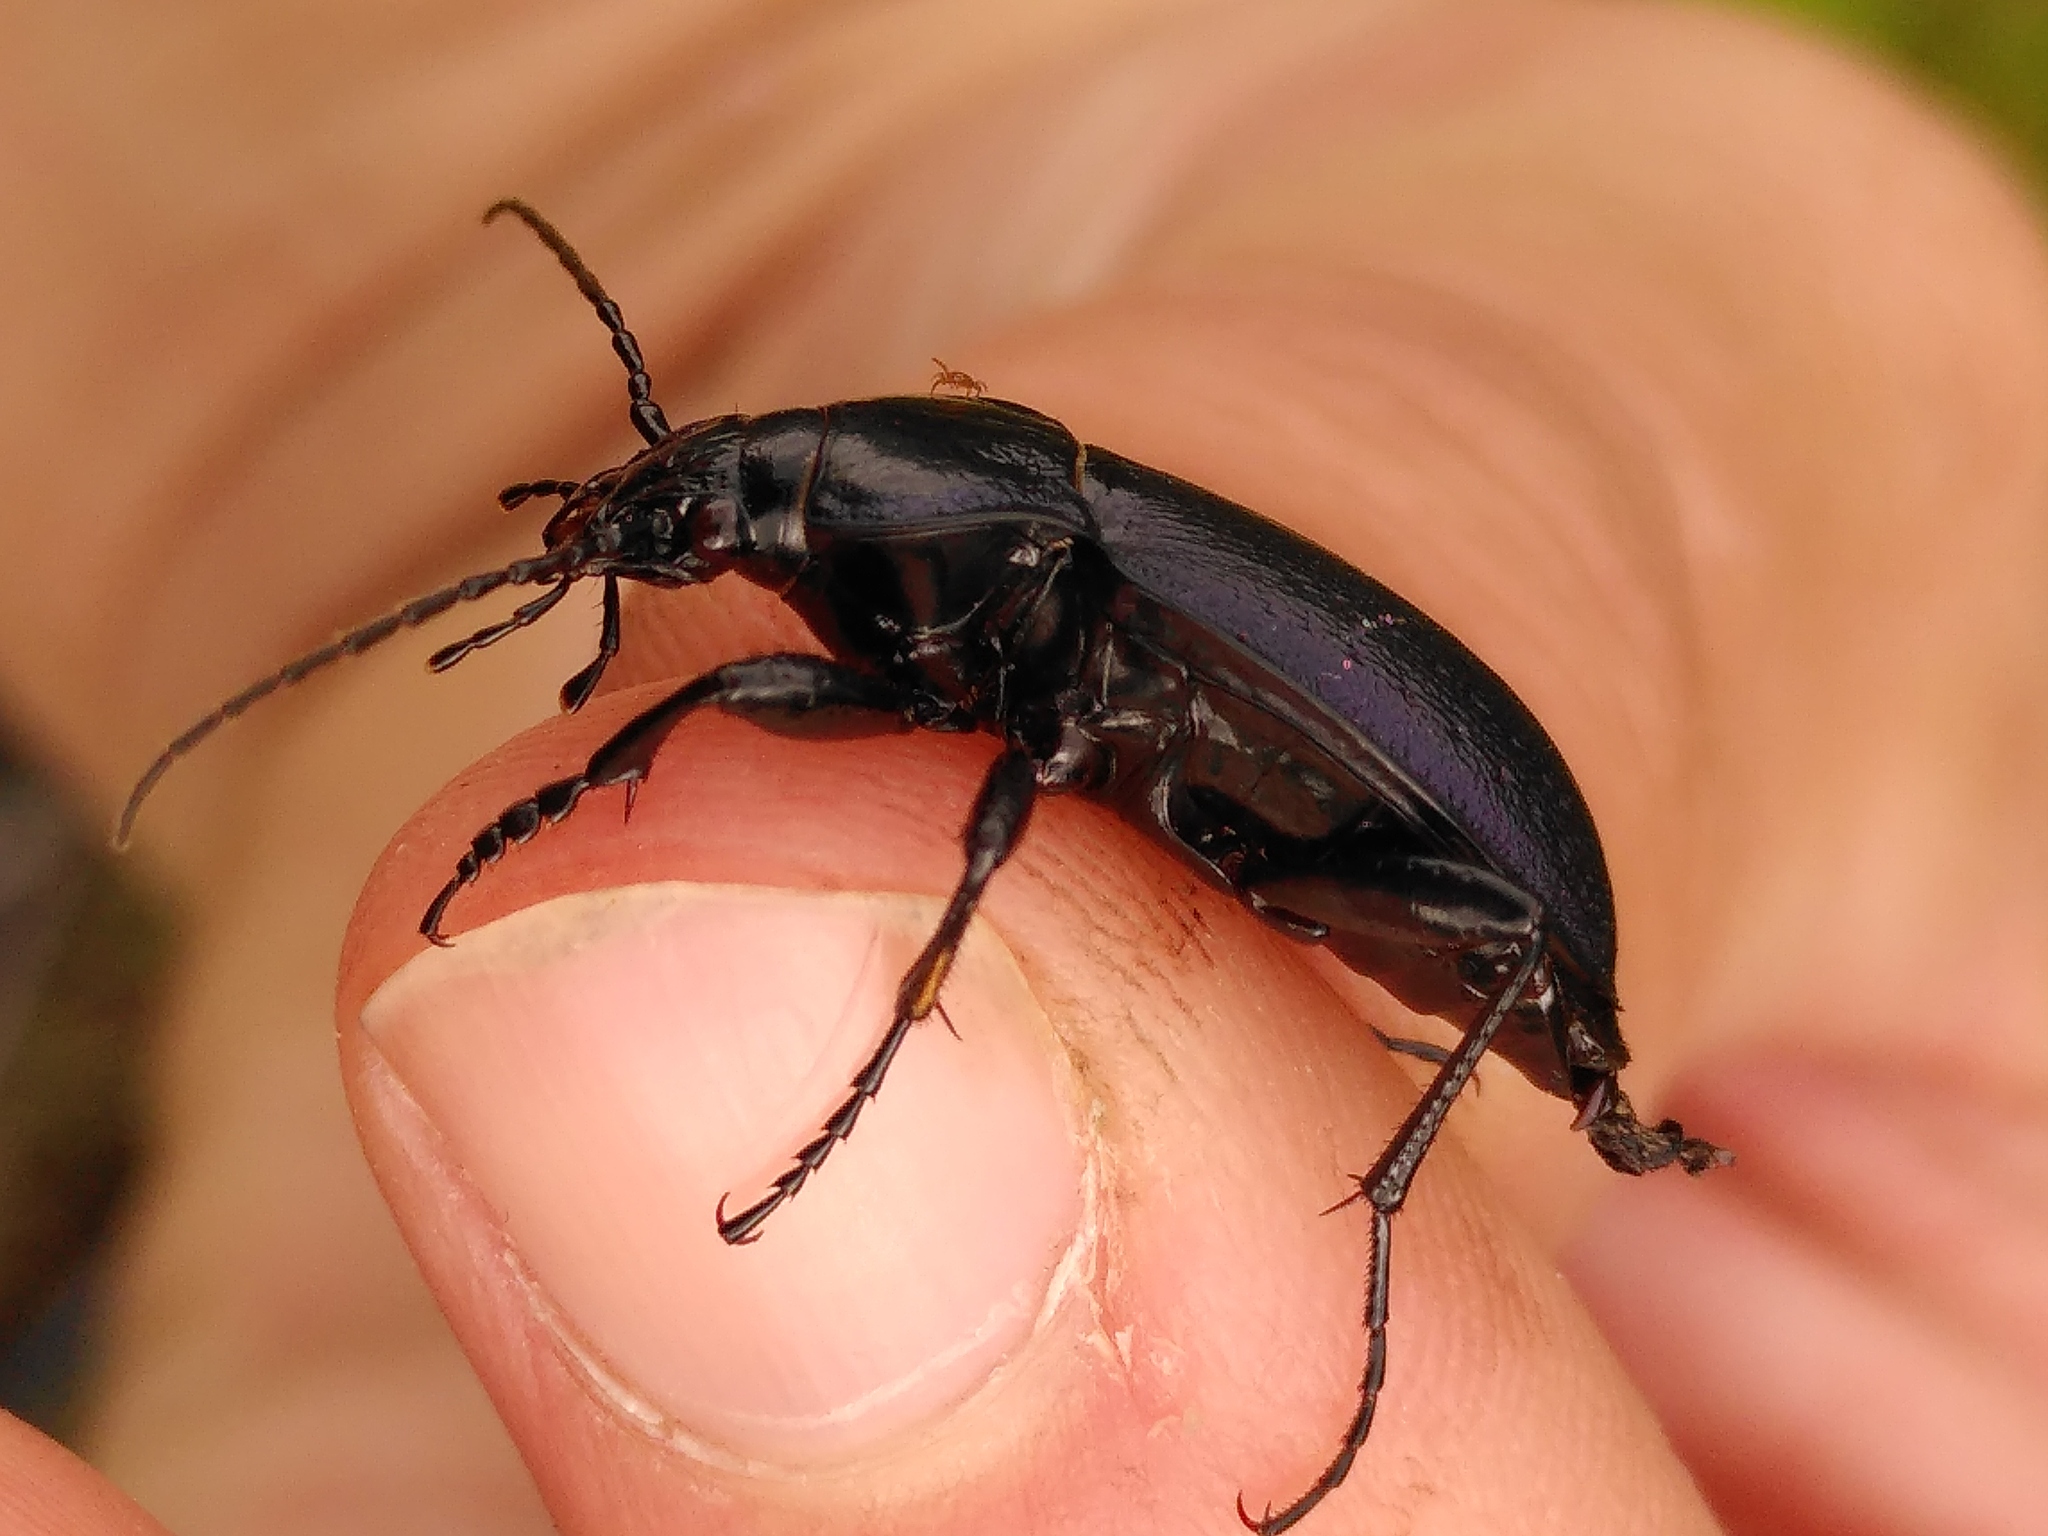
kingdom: Animalia
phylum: Arthropoda
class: Insecta
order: Coleoptera
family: Carabidae
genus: Carabus
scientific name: Carabus nemoralis
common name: European ground beetle
